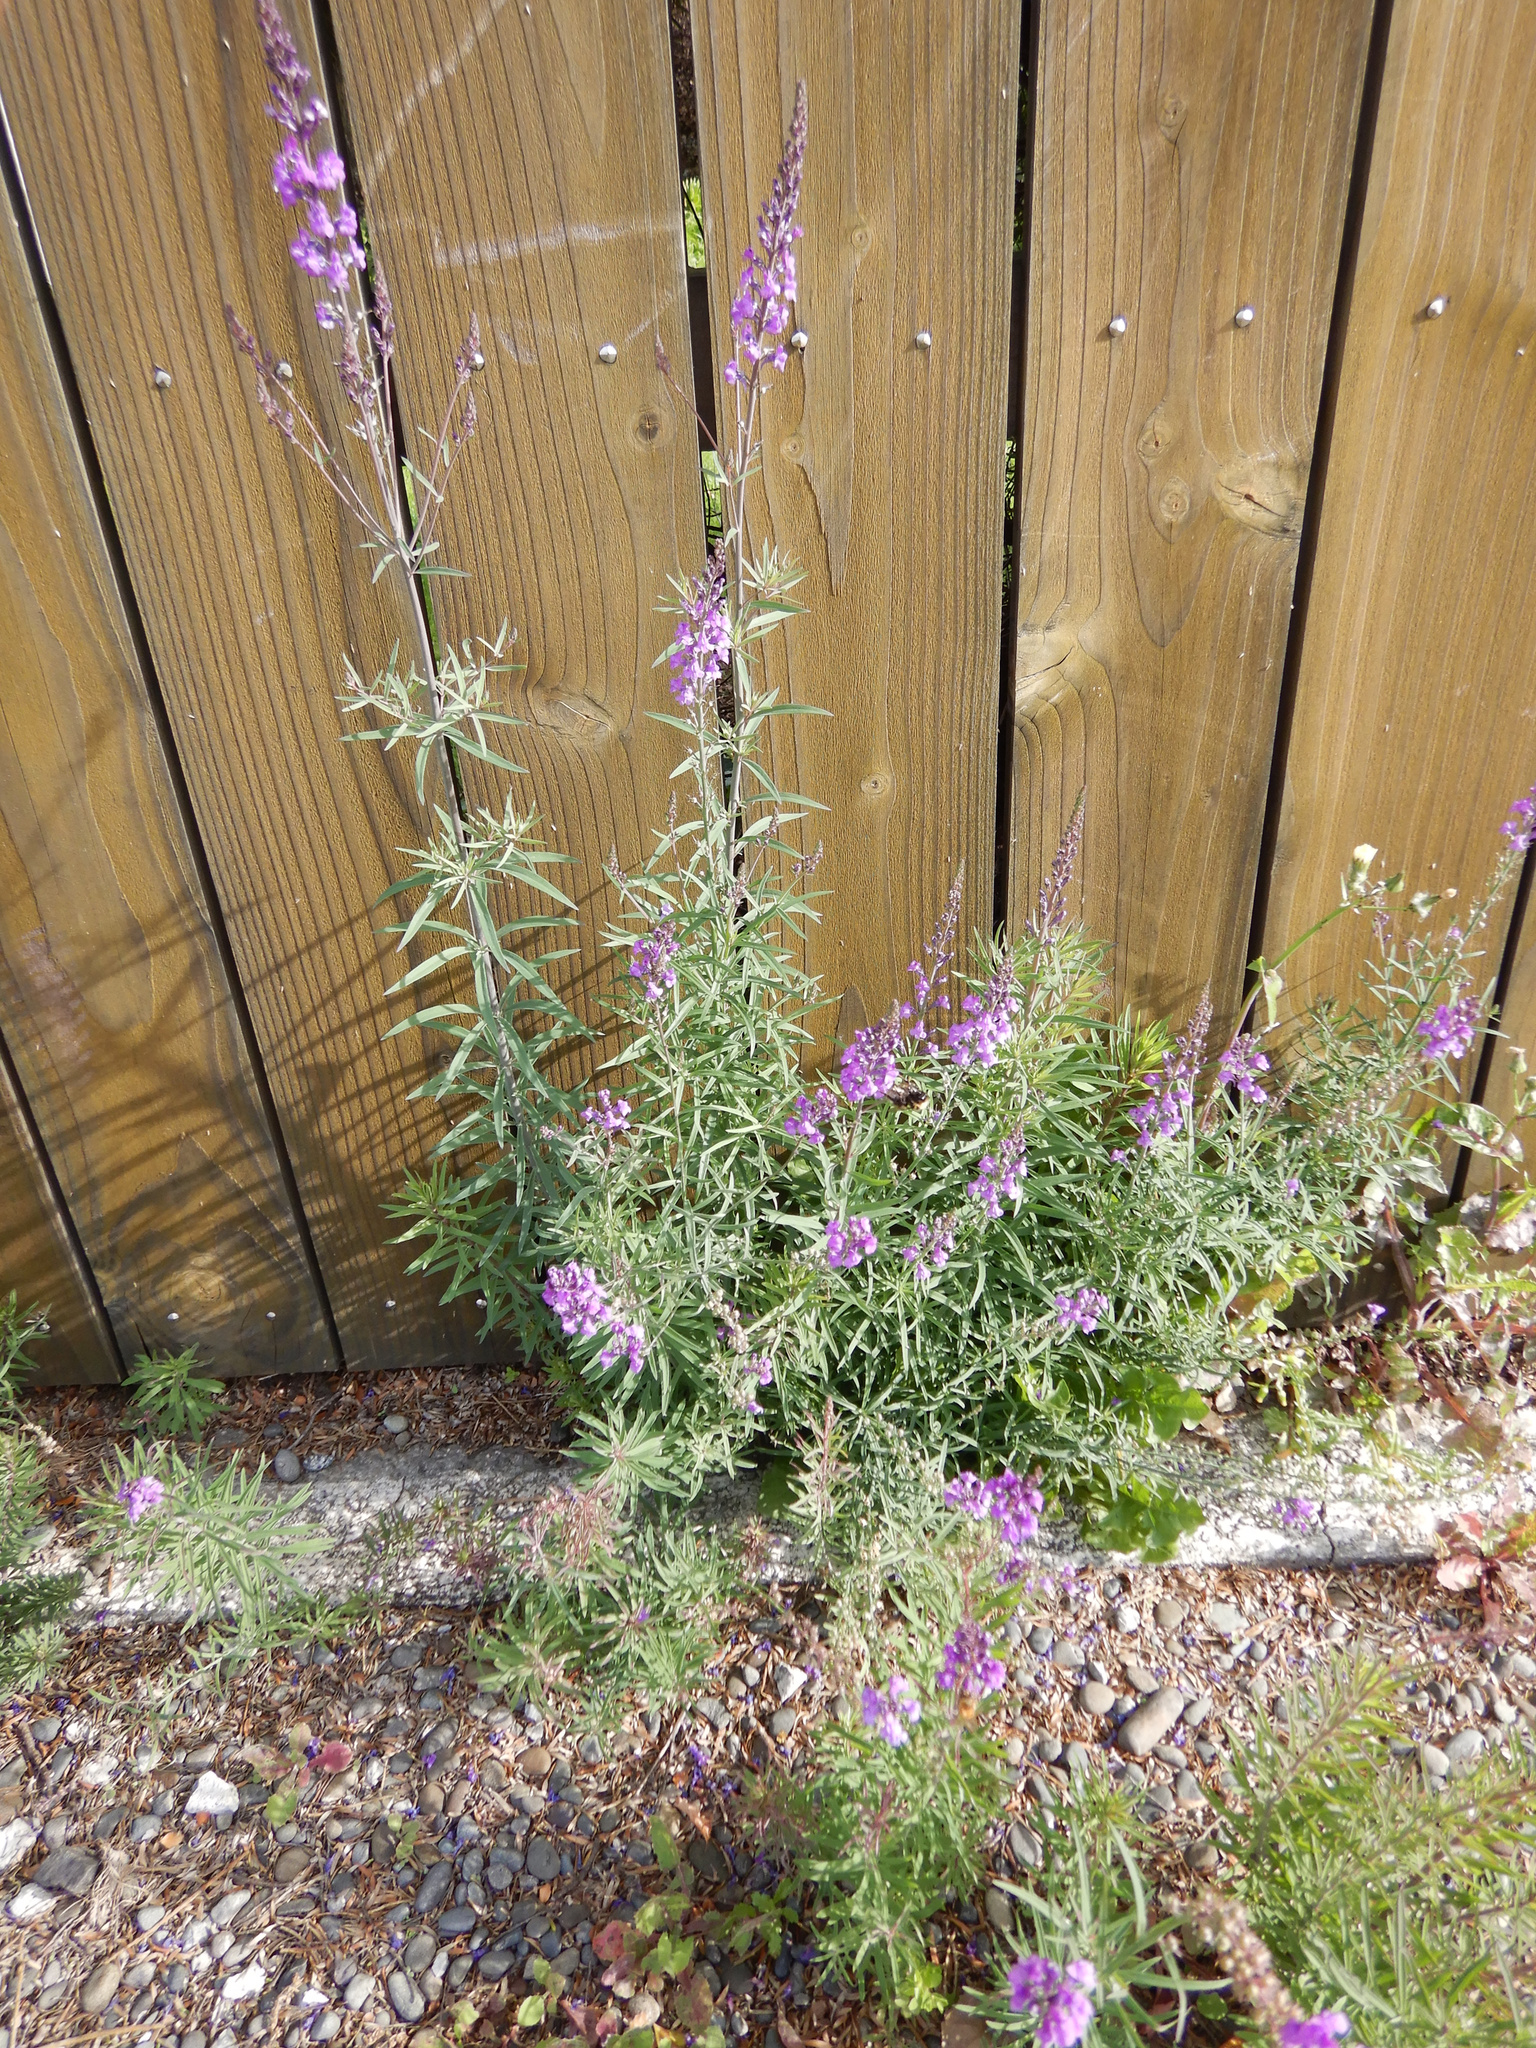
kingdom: Plantae
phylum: Tracheophyta
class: Magnoliopsida
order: Lamiales
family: Plantaginaceae
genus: Linaria
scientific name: Linaria purpurea
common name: Purple toadflax
